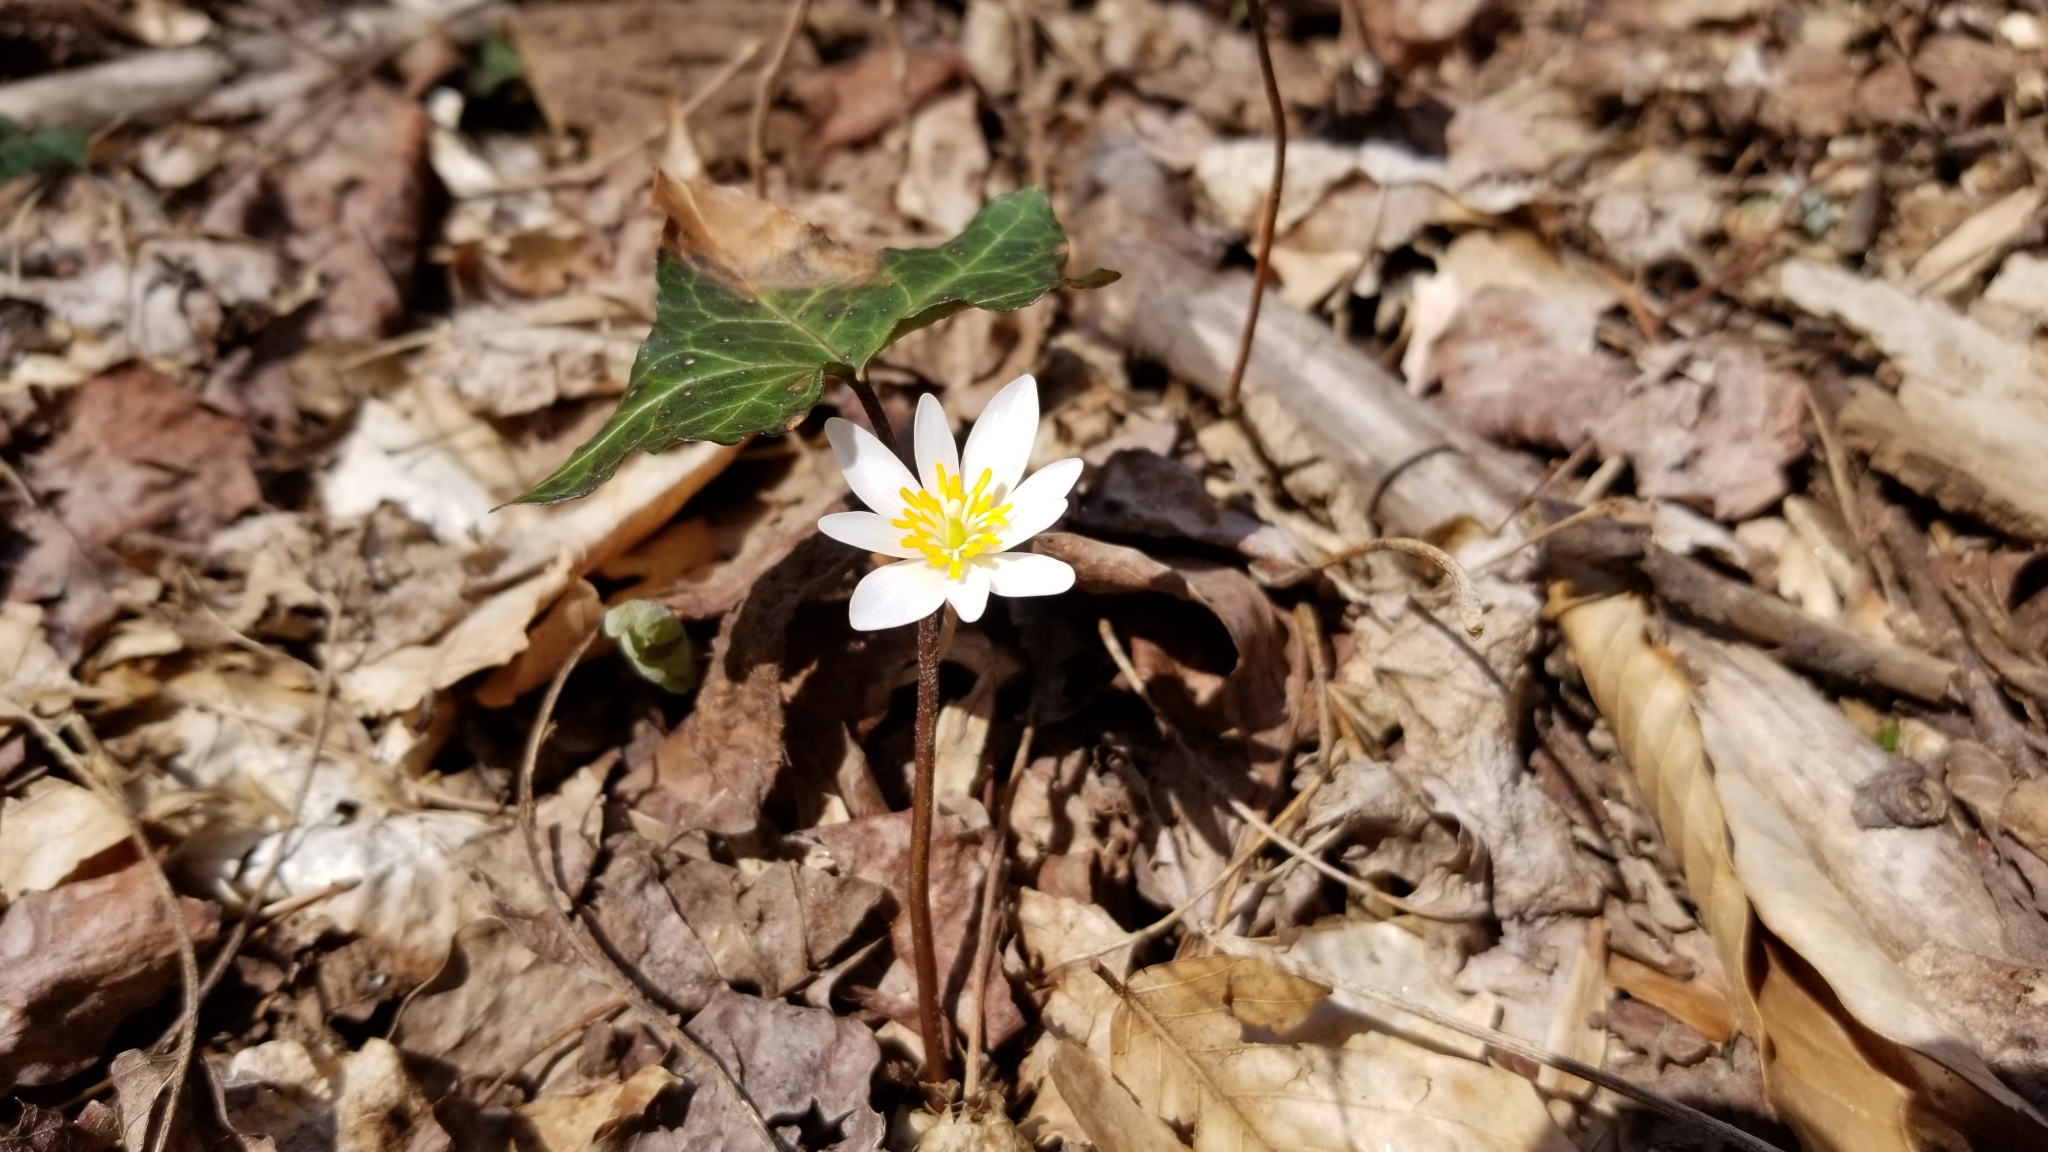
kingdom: Plantae
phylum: Tracheophyta
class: Magnoliopsida
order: Ranunculales
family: Papaveraceae
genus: Sanguinaria
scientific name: Sanguinaria canadensis
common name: Bloodroot
